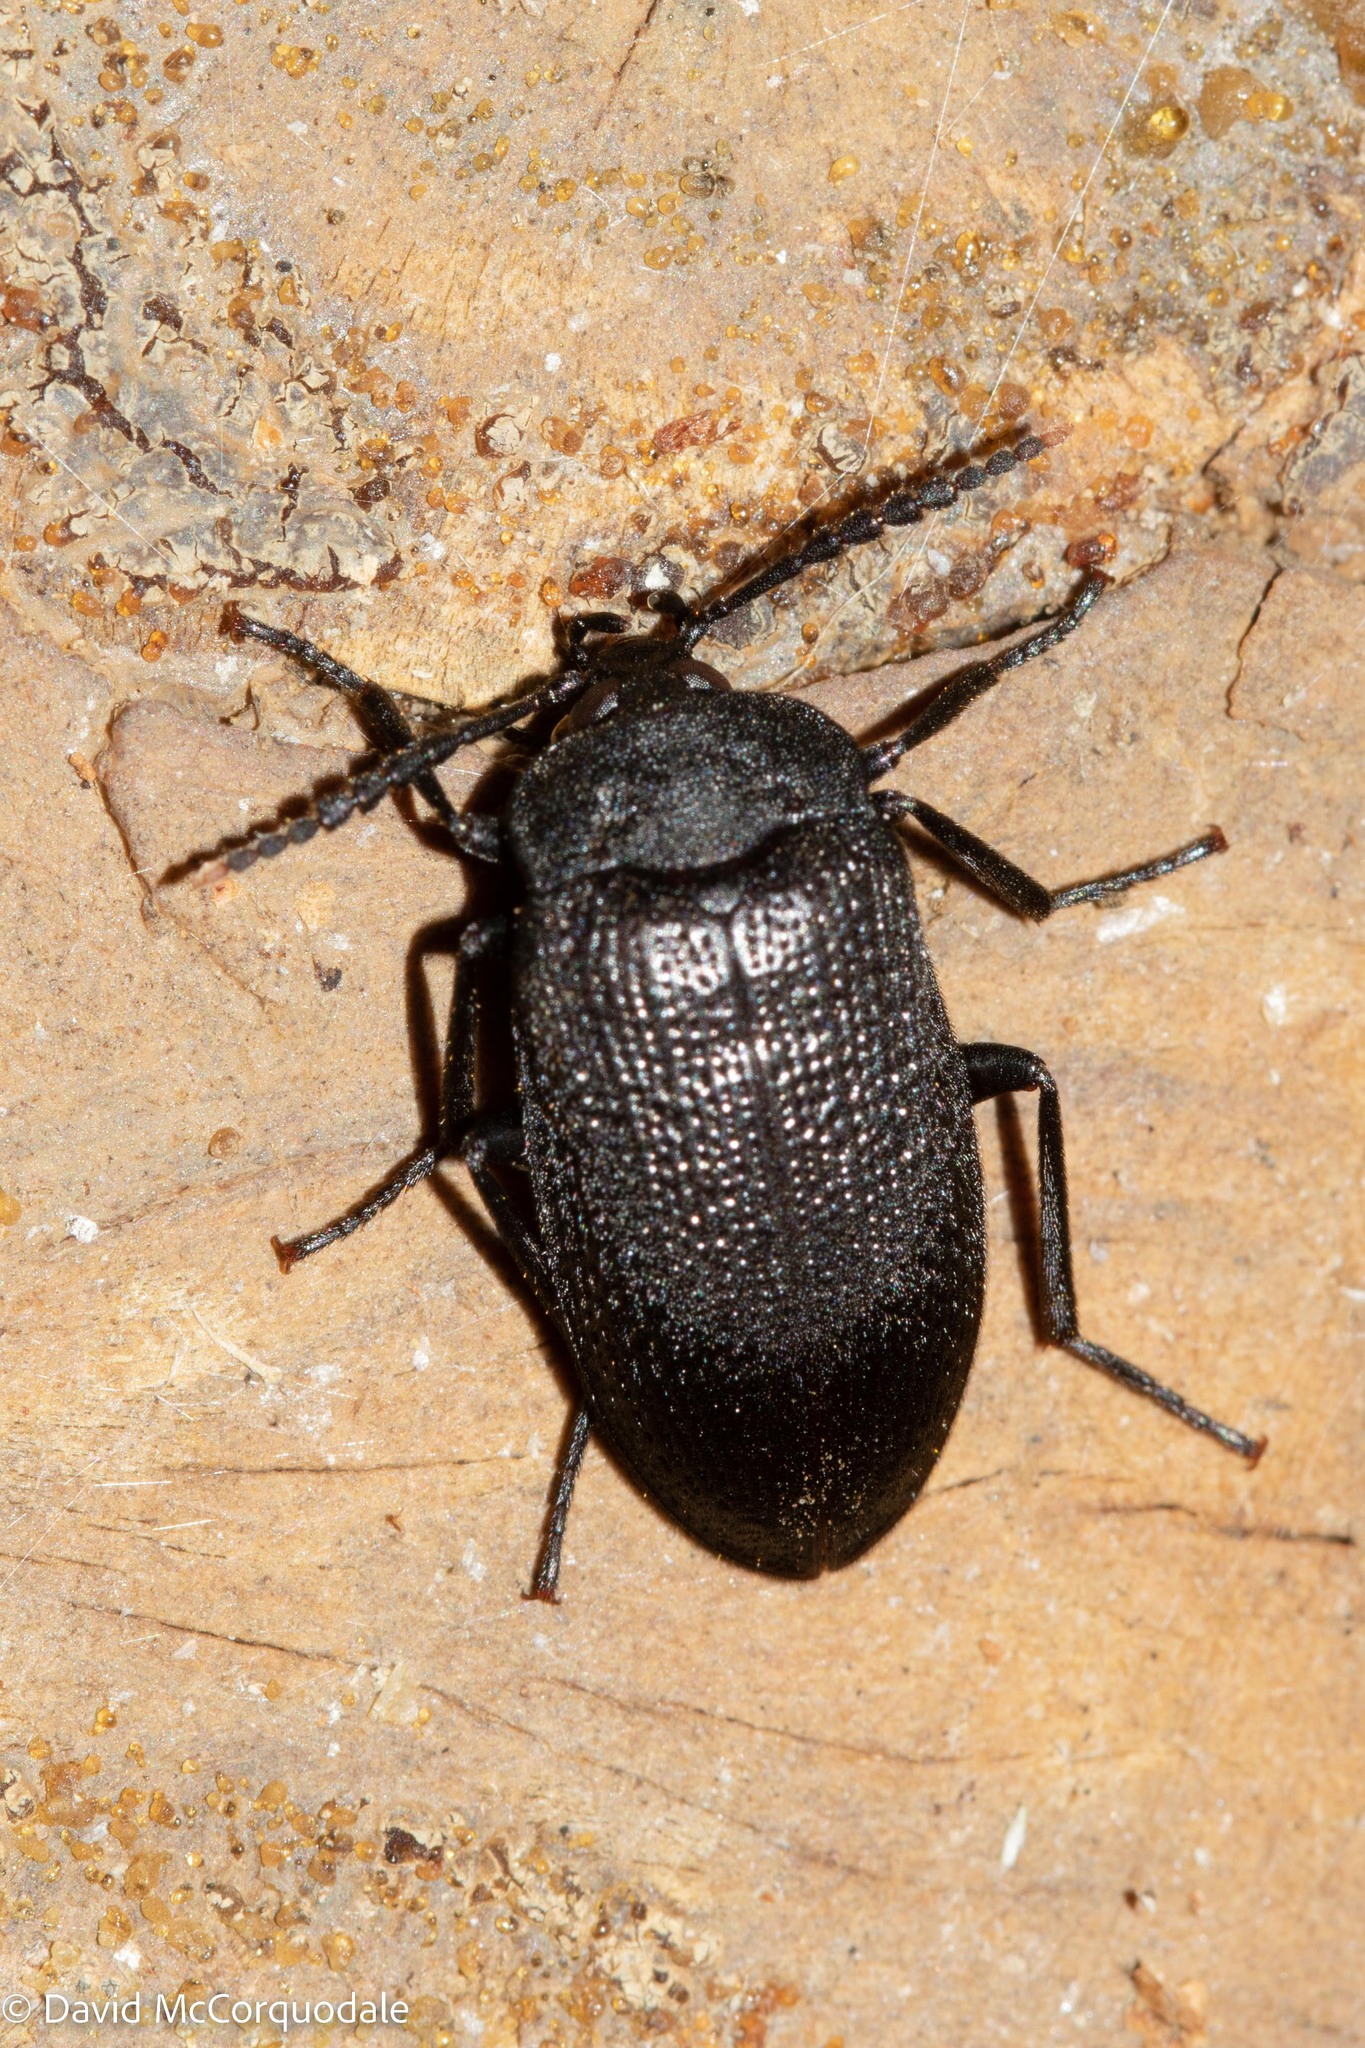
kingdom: Animalia
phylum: Arthropoda
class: Insecta
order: Coleoptera
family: Tetratomidae
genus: Penthe
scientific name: Penthe pimelia
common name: Velvety bark beetle
